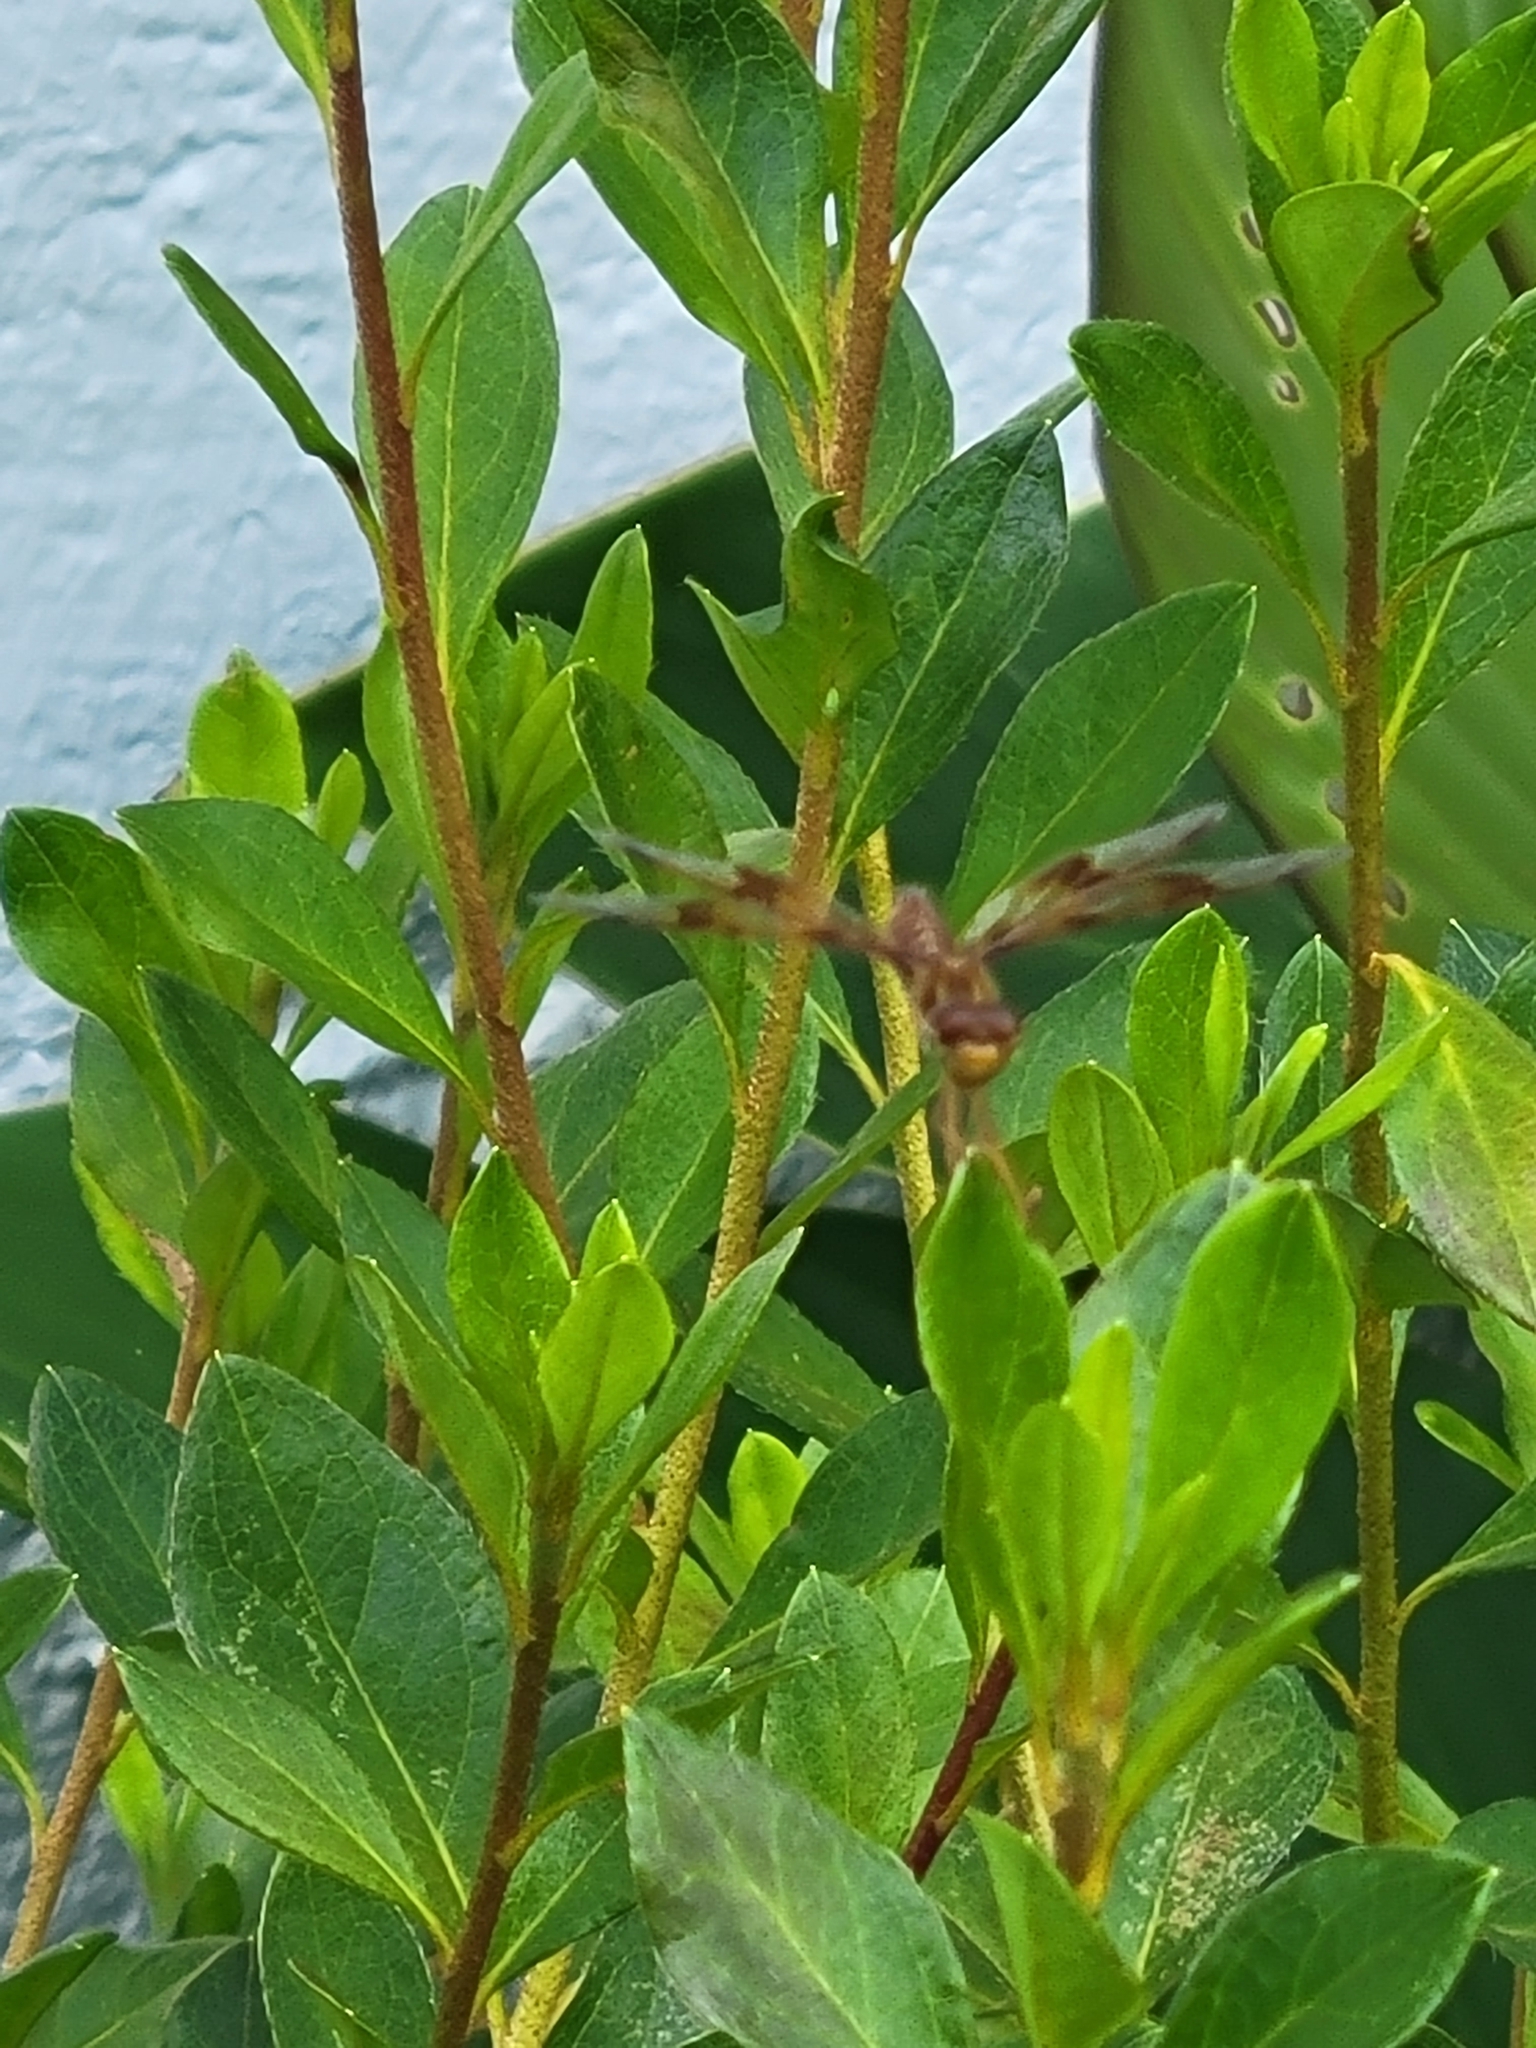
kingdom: Animalia
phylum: Arthropoda
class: Insecta
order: Odonata
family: Libellulidae
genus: Perithemis
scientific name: Perithemis tenera
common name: Eastern amberwing
